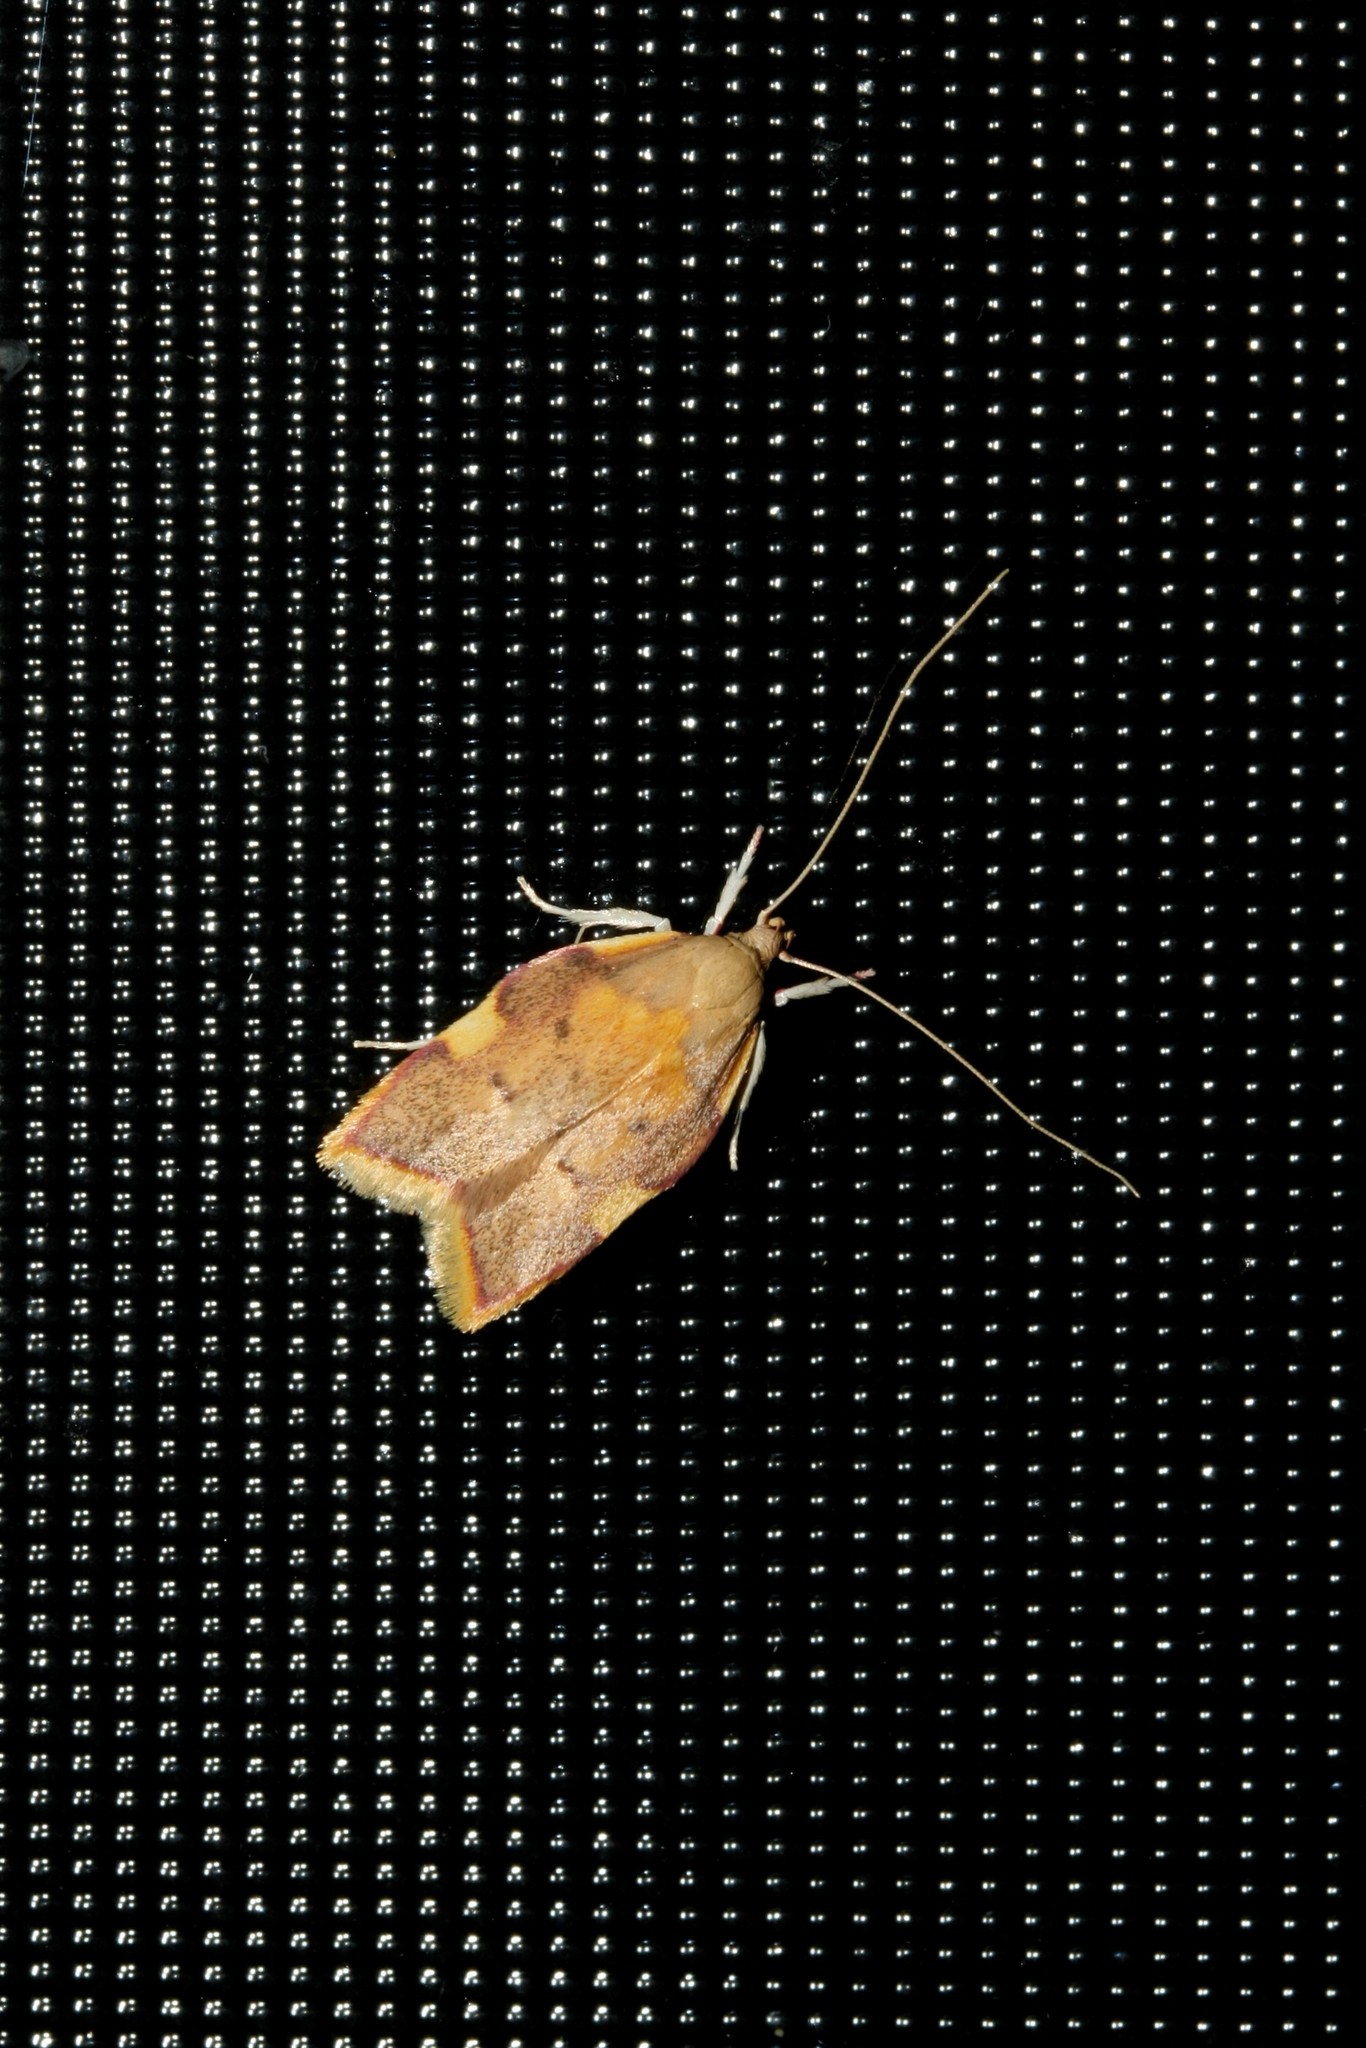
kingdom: Animalia
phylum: Arthropoda
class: Insecta
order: Lepidoptera
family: Peleopodidae
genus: Carcina
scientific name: Carcina quercana
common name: Moth
